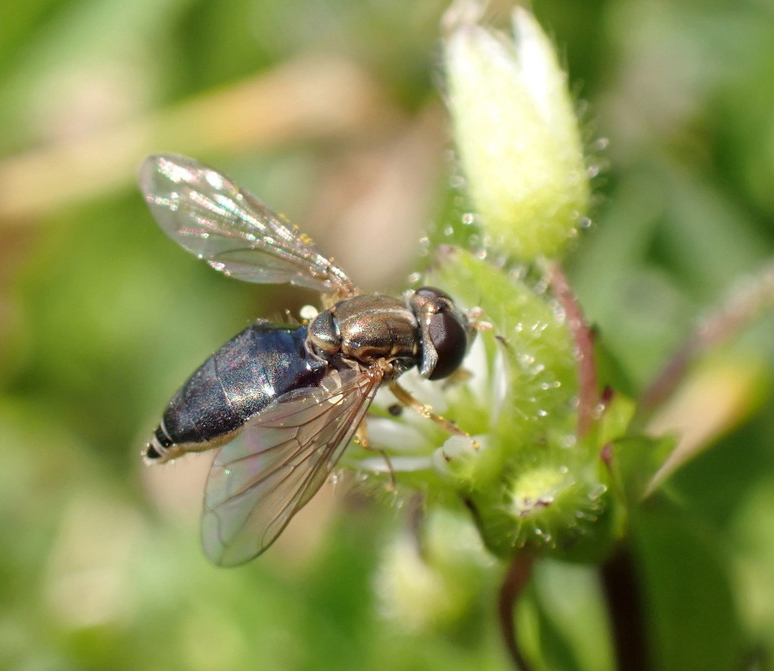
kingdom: Animalia
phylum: Arthropoda
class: Insecta
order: Diptera
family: Syrphidae
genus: Toxomerus
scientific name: Toxomerus marginatus
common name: Syrphid fly
